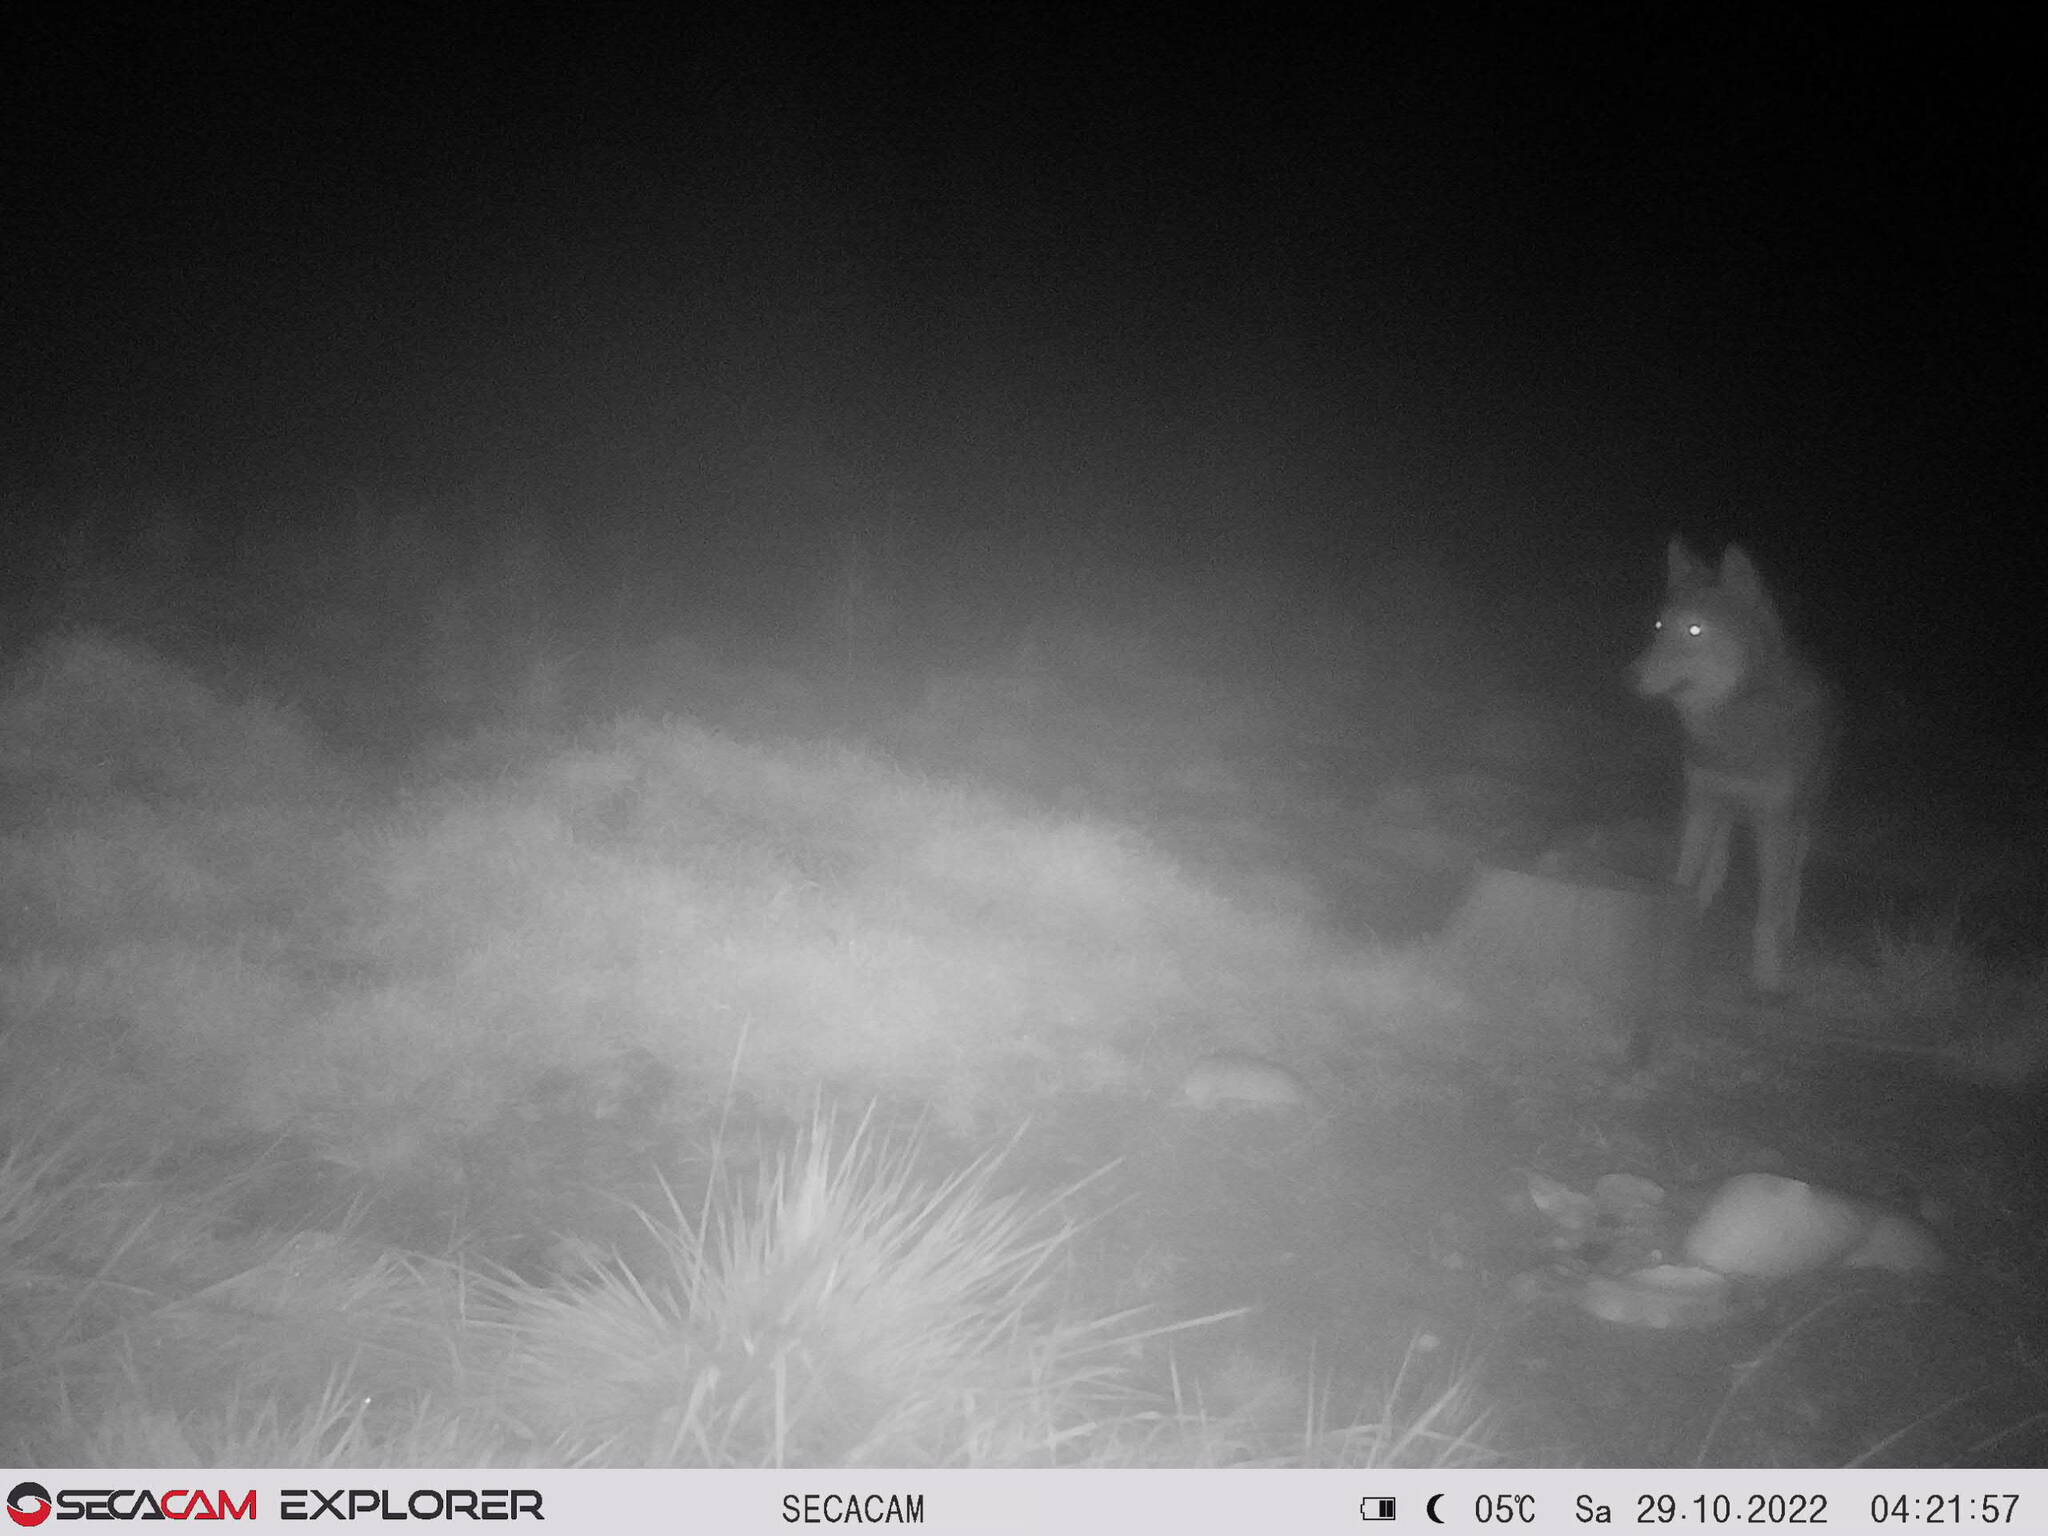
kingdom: Animalia
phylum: Chordata
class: Mammalia
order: Carnivora
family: Canidae
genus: Canis
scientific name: Canis lupus
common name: Gray wolf
